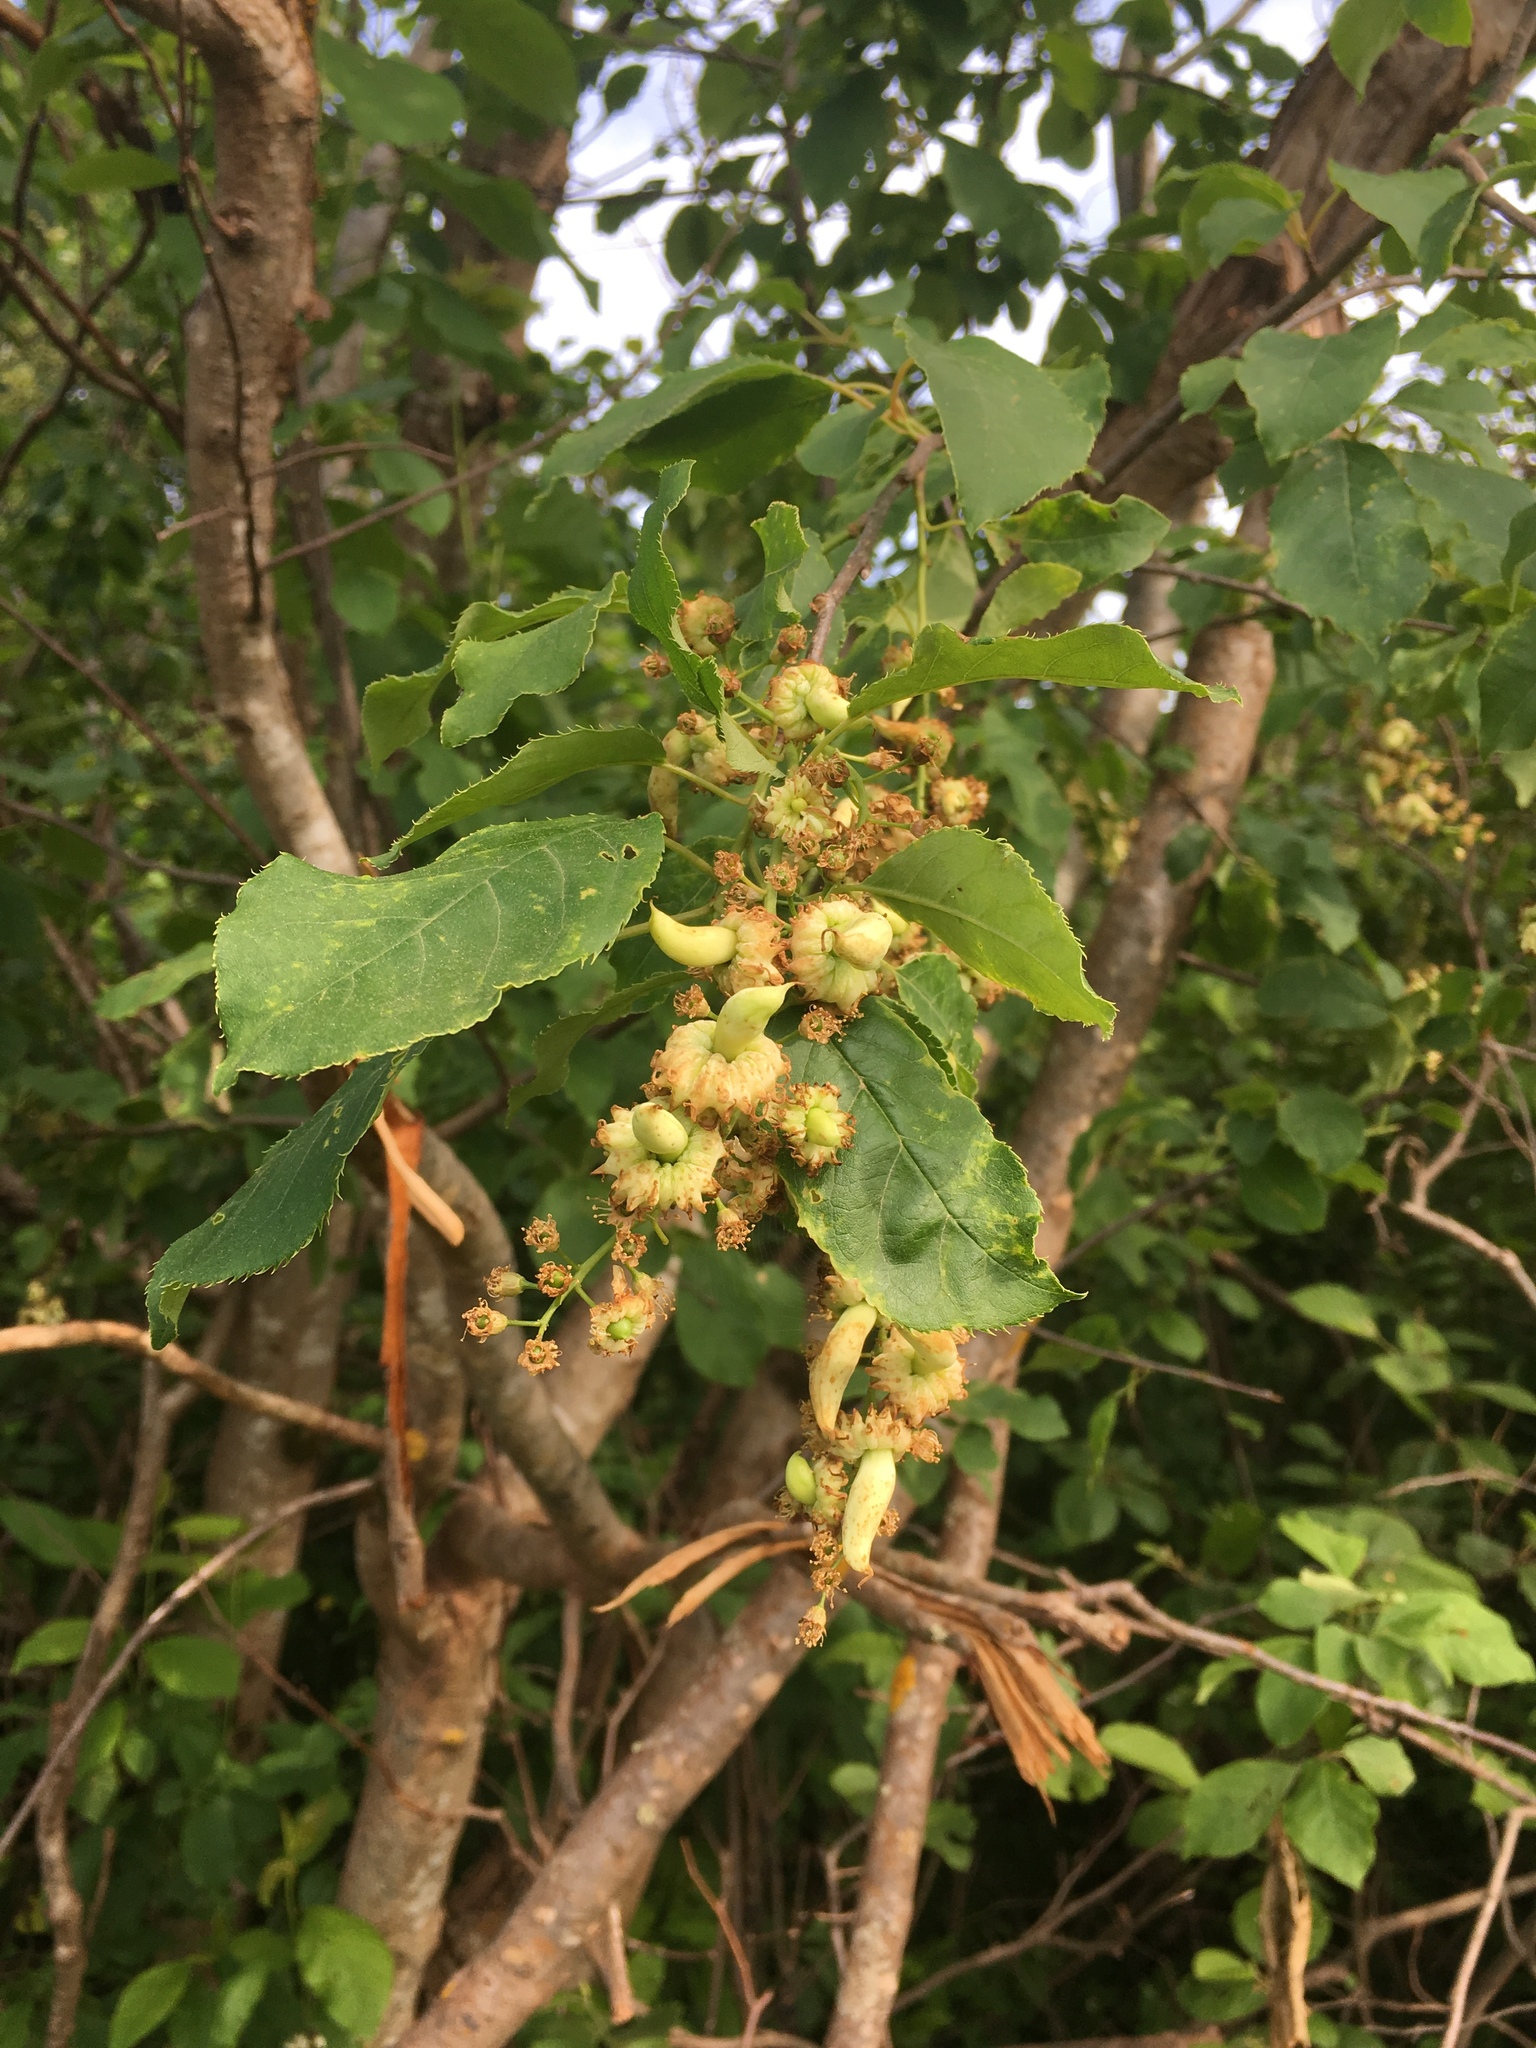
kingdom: Plantae
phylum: Tracheophyta
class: Magnoliopsida
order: Rosales
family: Rosaceae
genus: Prunus
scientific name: Prunus virginiana
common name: Chokecherry
